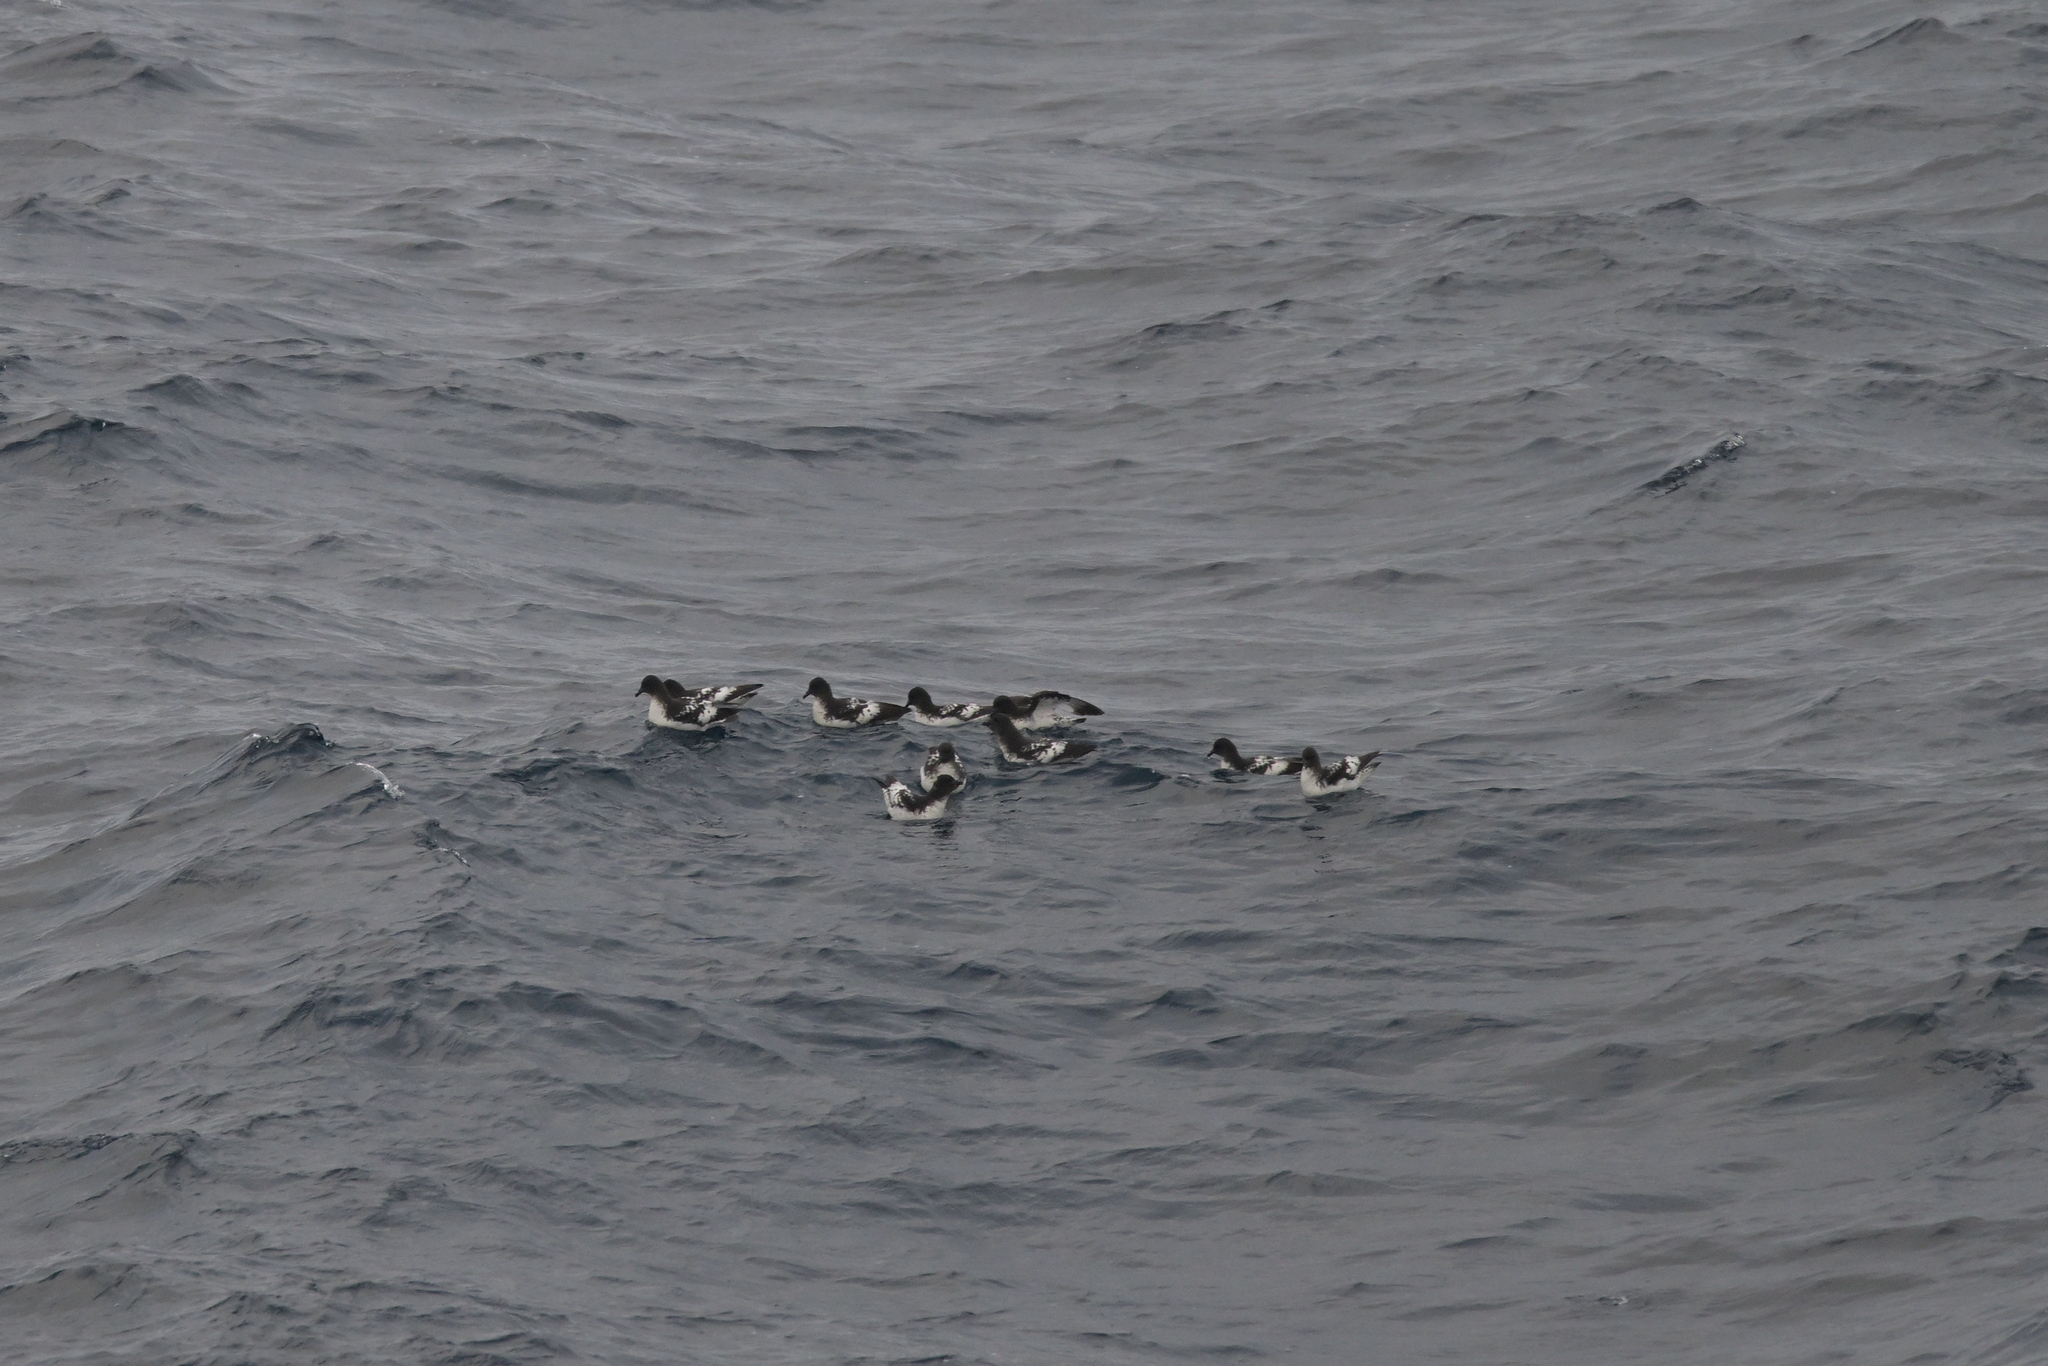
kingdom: Animalia
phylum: Chordata
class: Aves
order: Procellariiformes
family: Procellariidae
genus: Daption
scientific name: Daption capense
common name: Cape petrel
